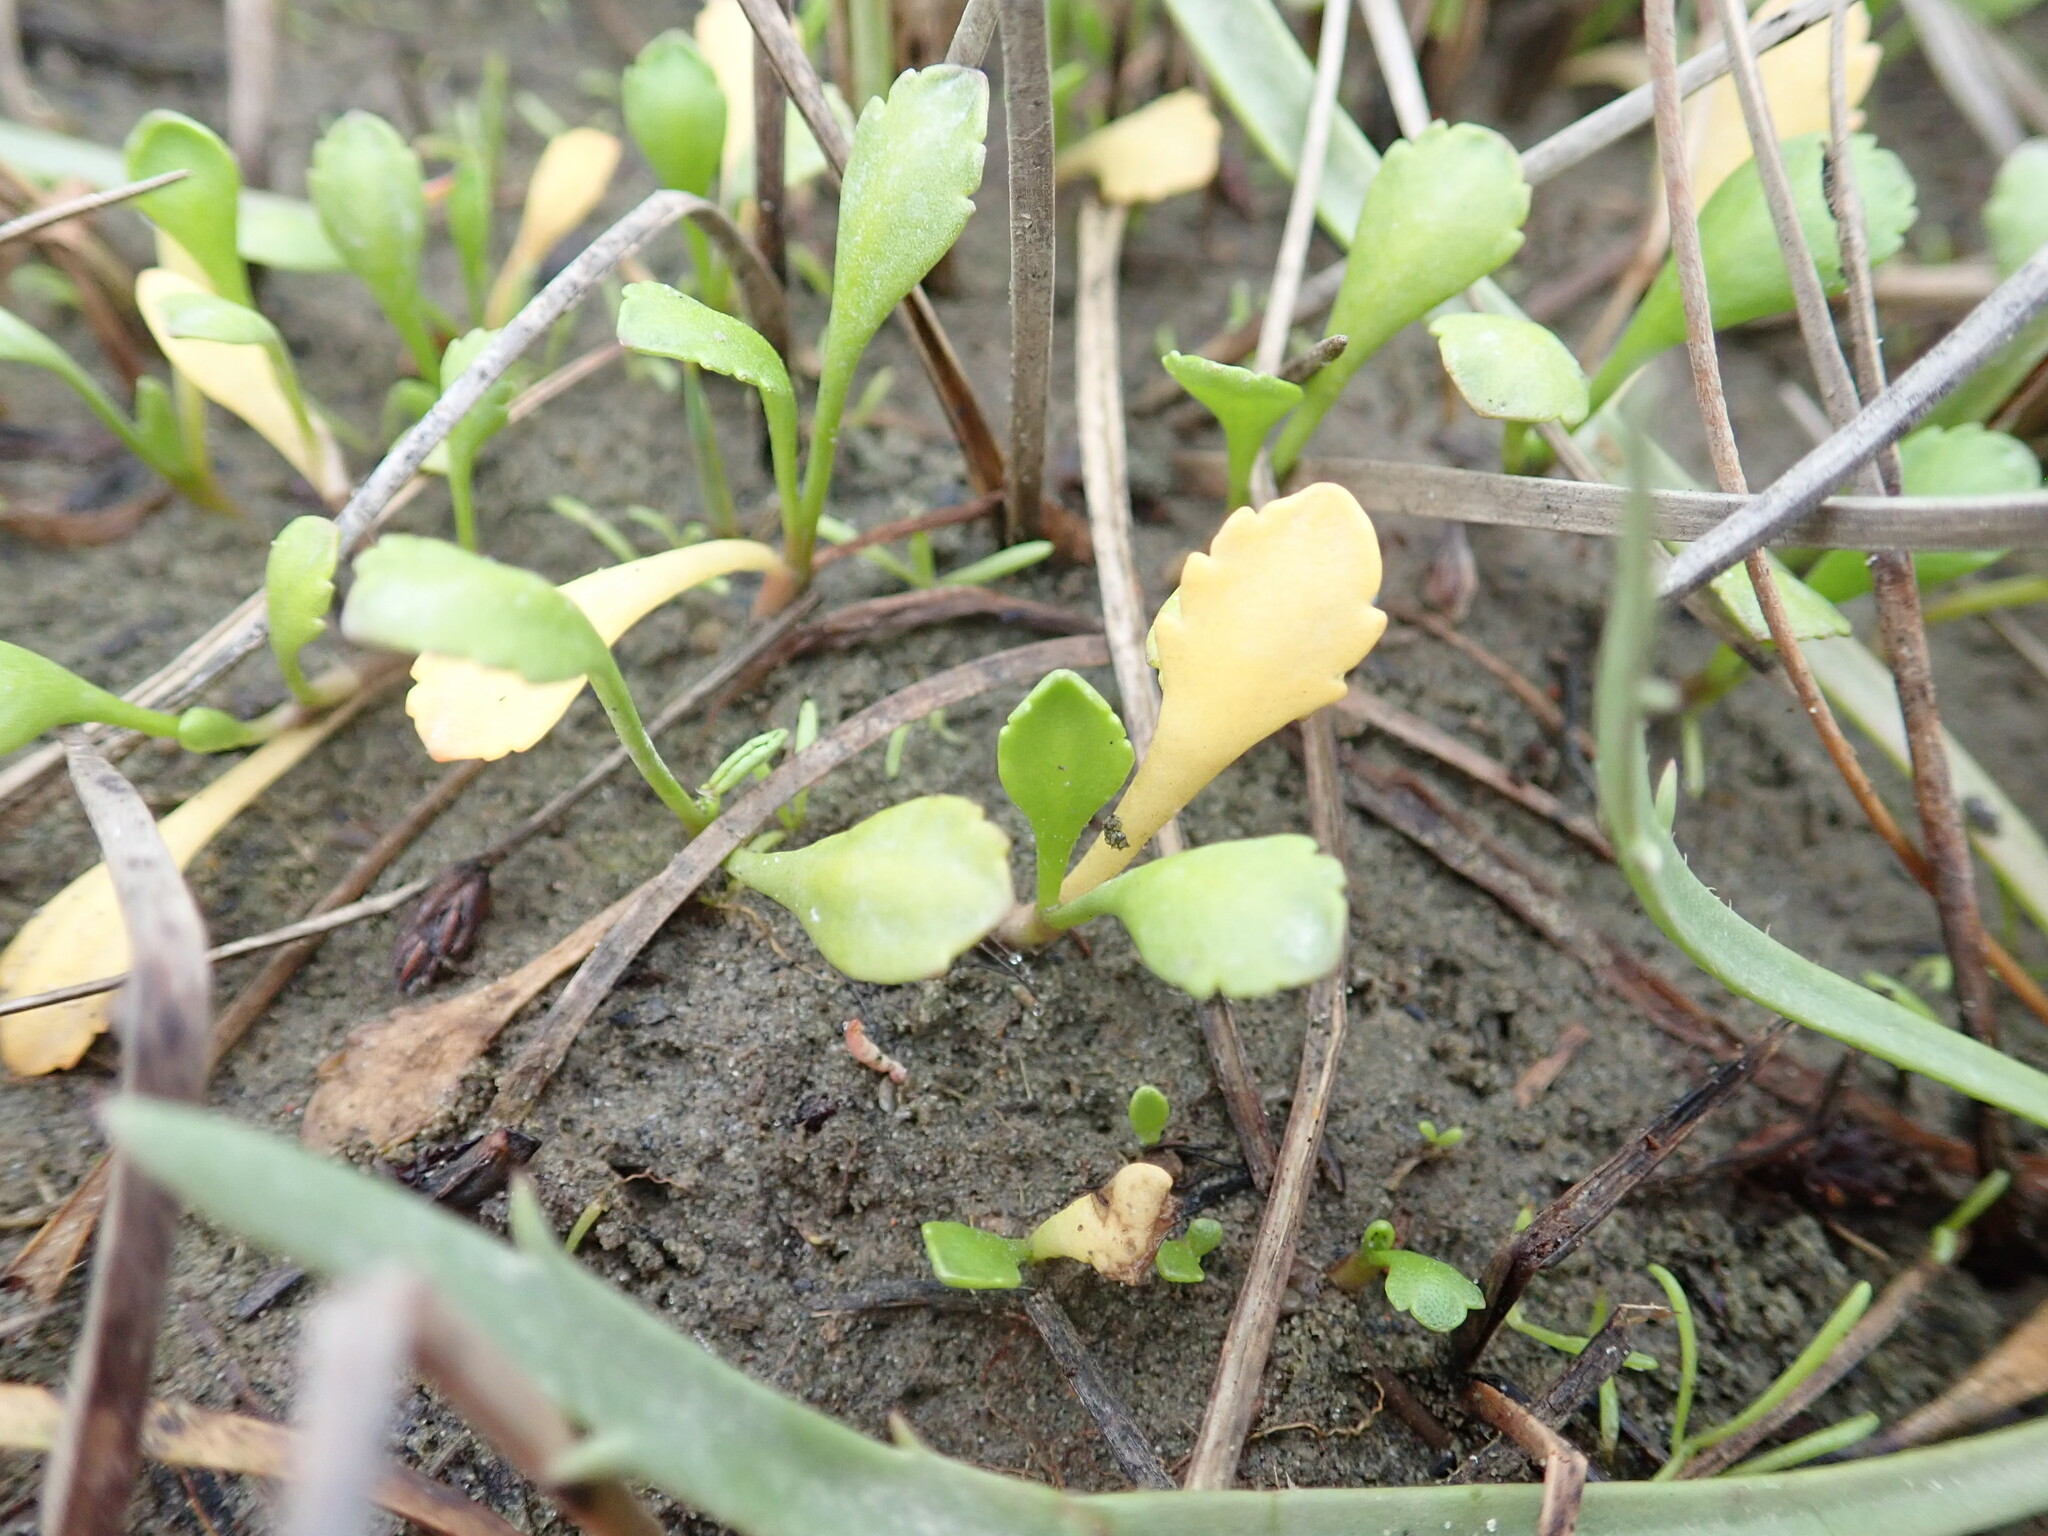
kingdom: Plantae
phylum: Tracheophyta
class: Magnoliopsida
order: Asterales
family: Asteraceae
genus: Leptinella
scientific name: Leptinella dioica
